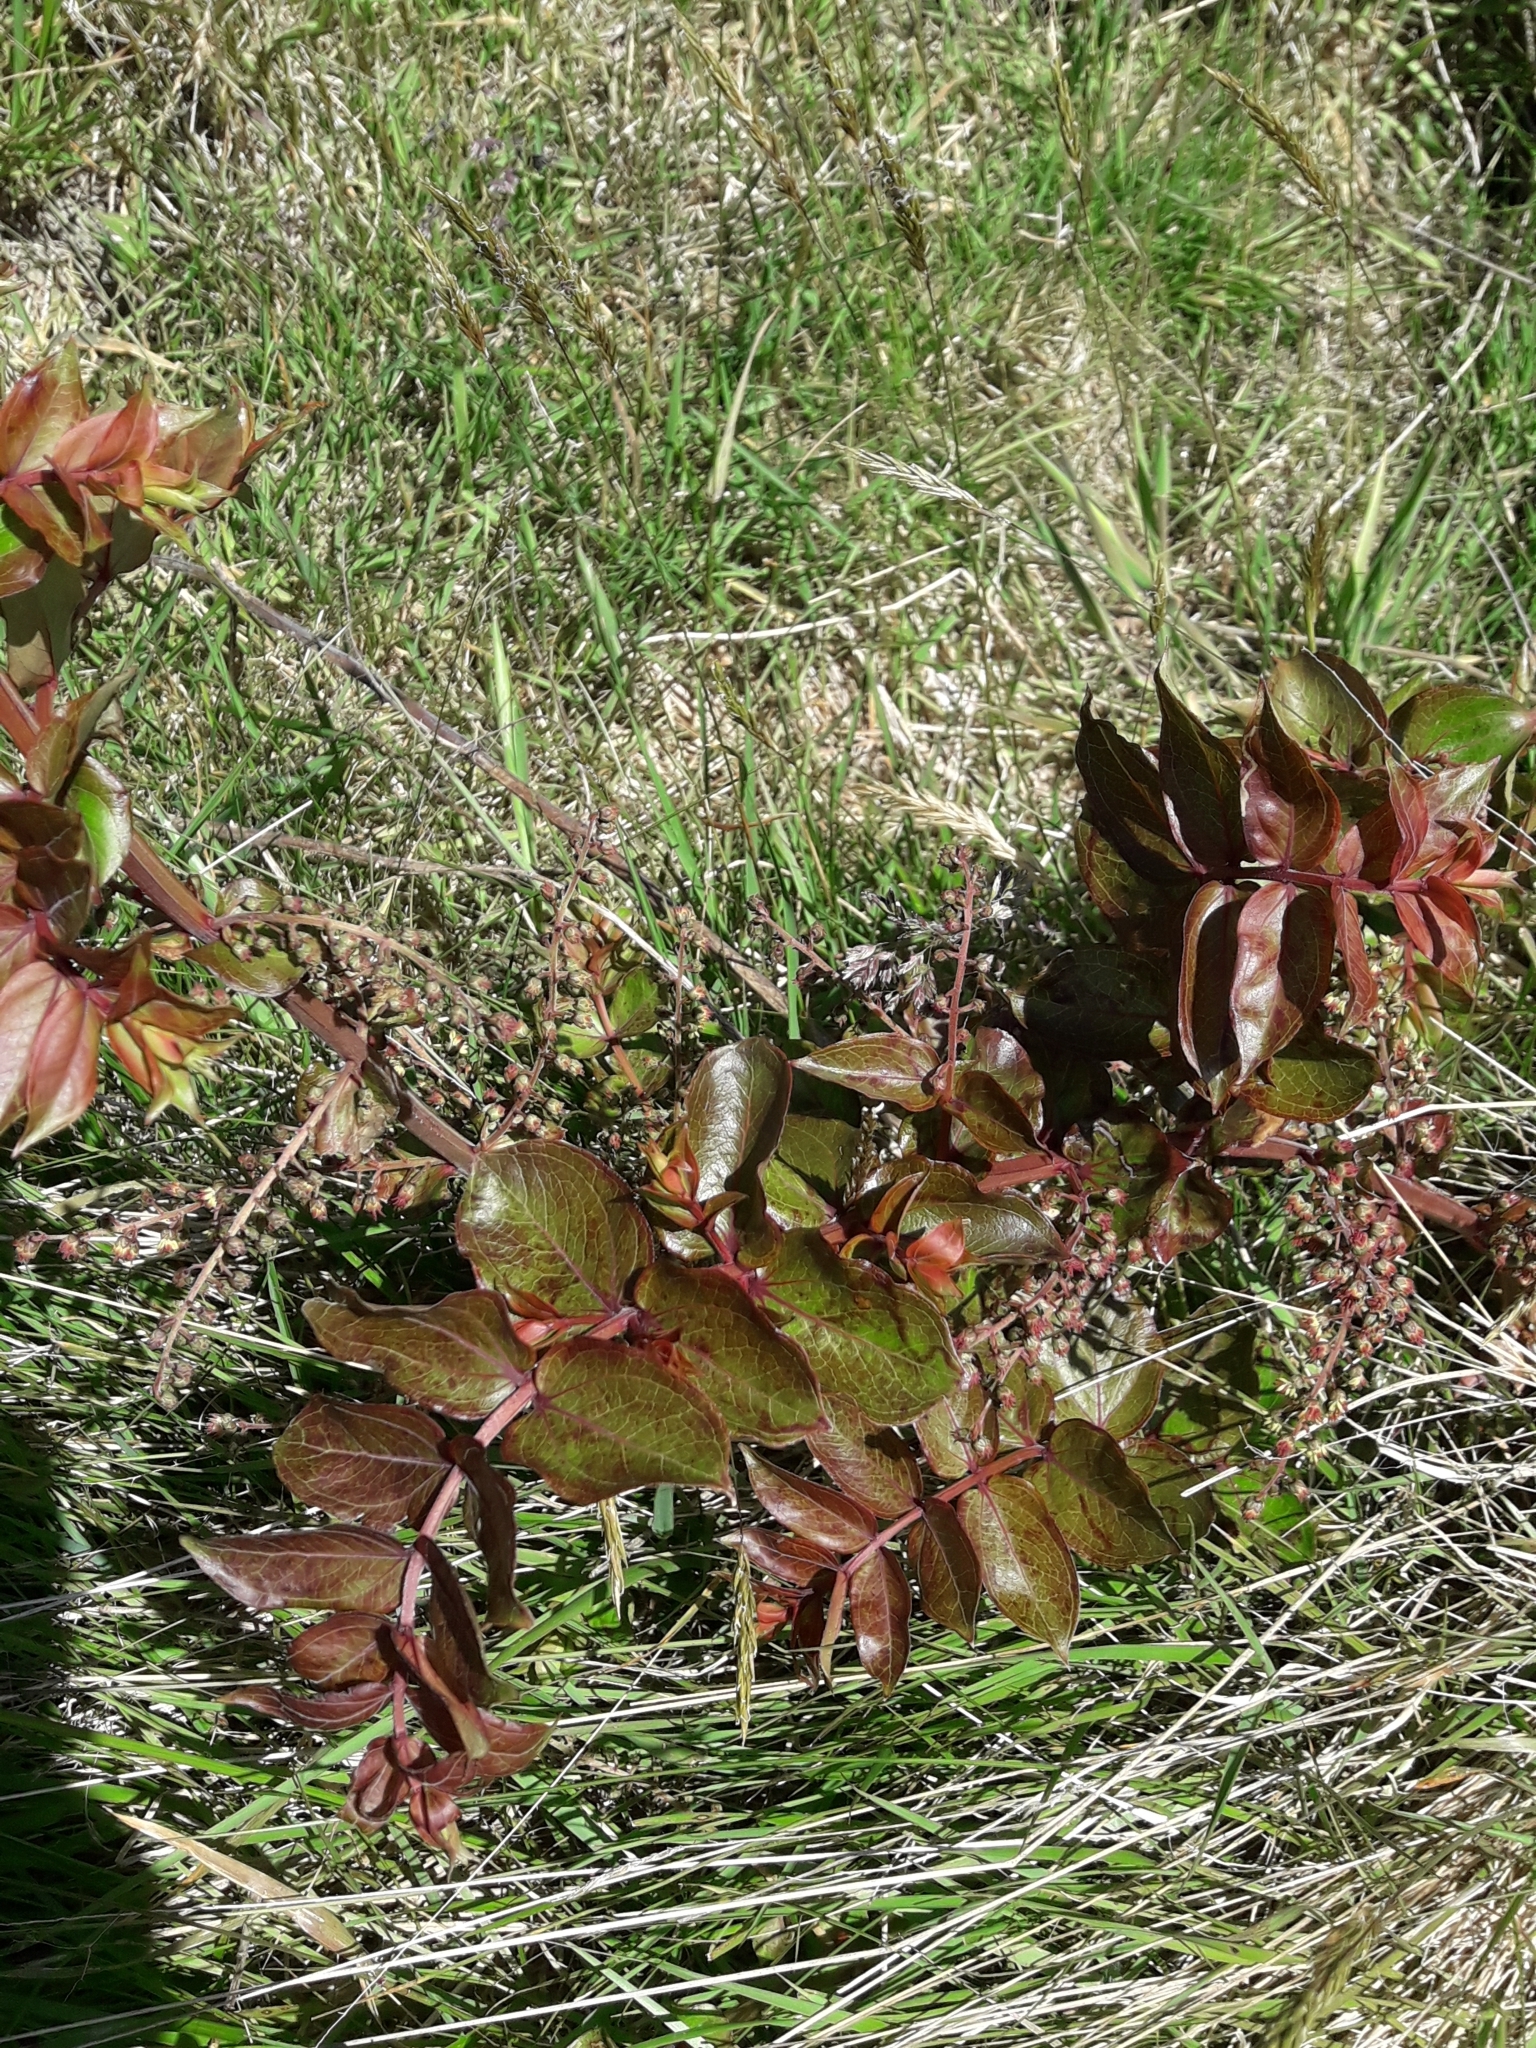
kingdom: Plantae
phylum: Tracheophyta
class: Magnoliopsida
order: Cucurbitales
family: Coriariaceae
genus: Coriaria
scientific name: Coriaria sarmentosa
